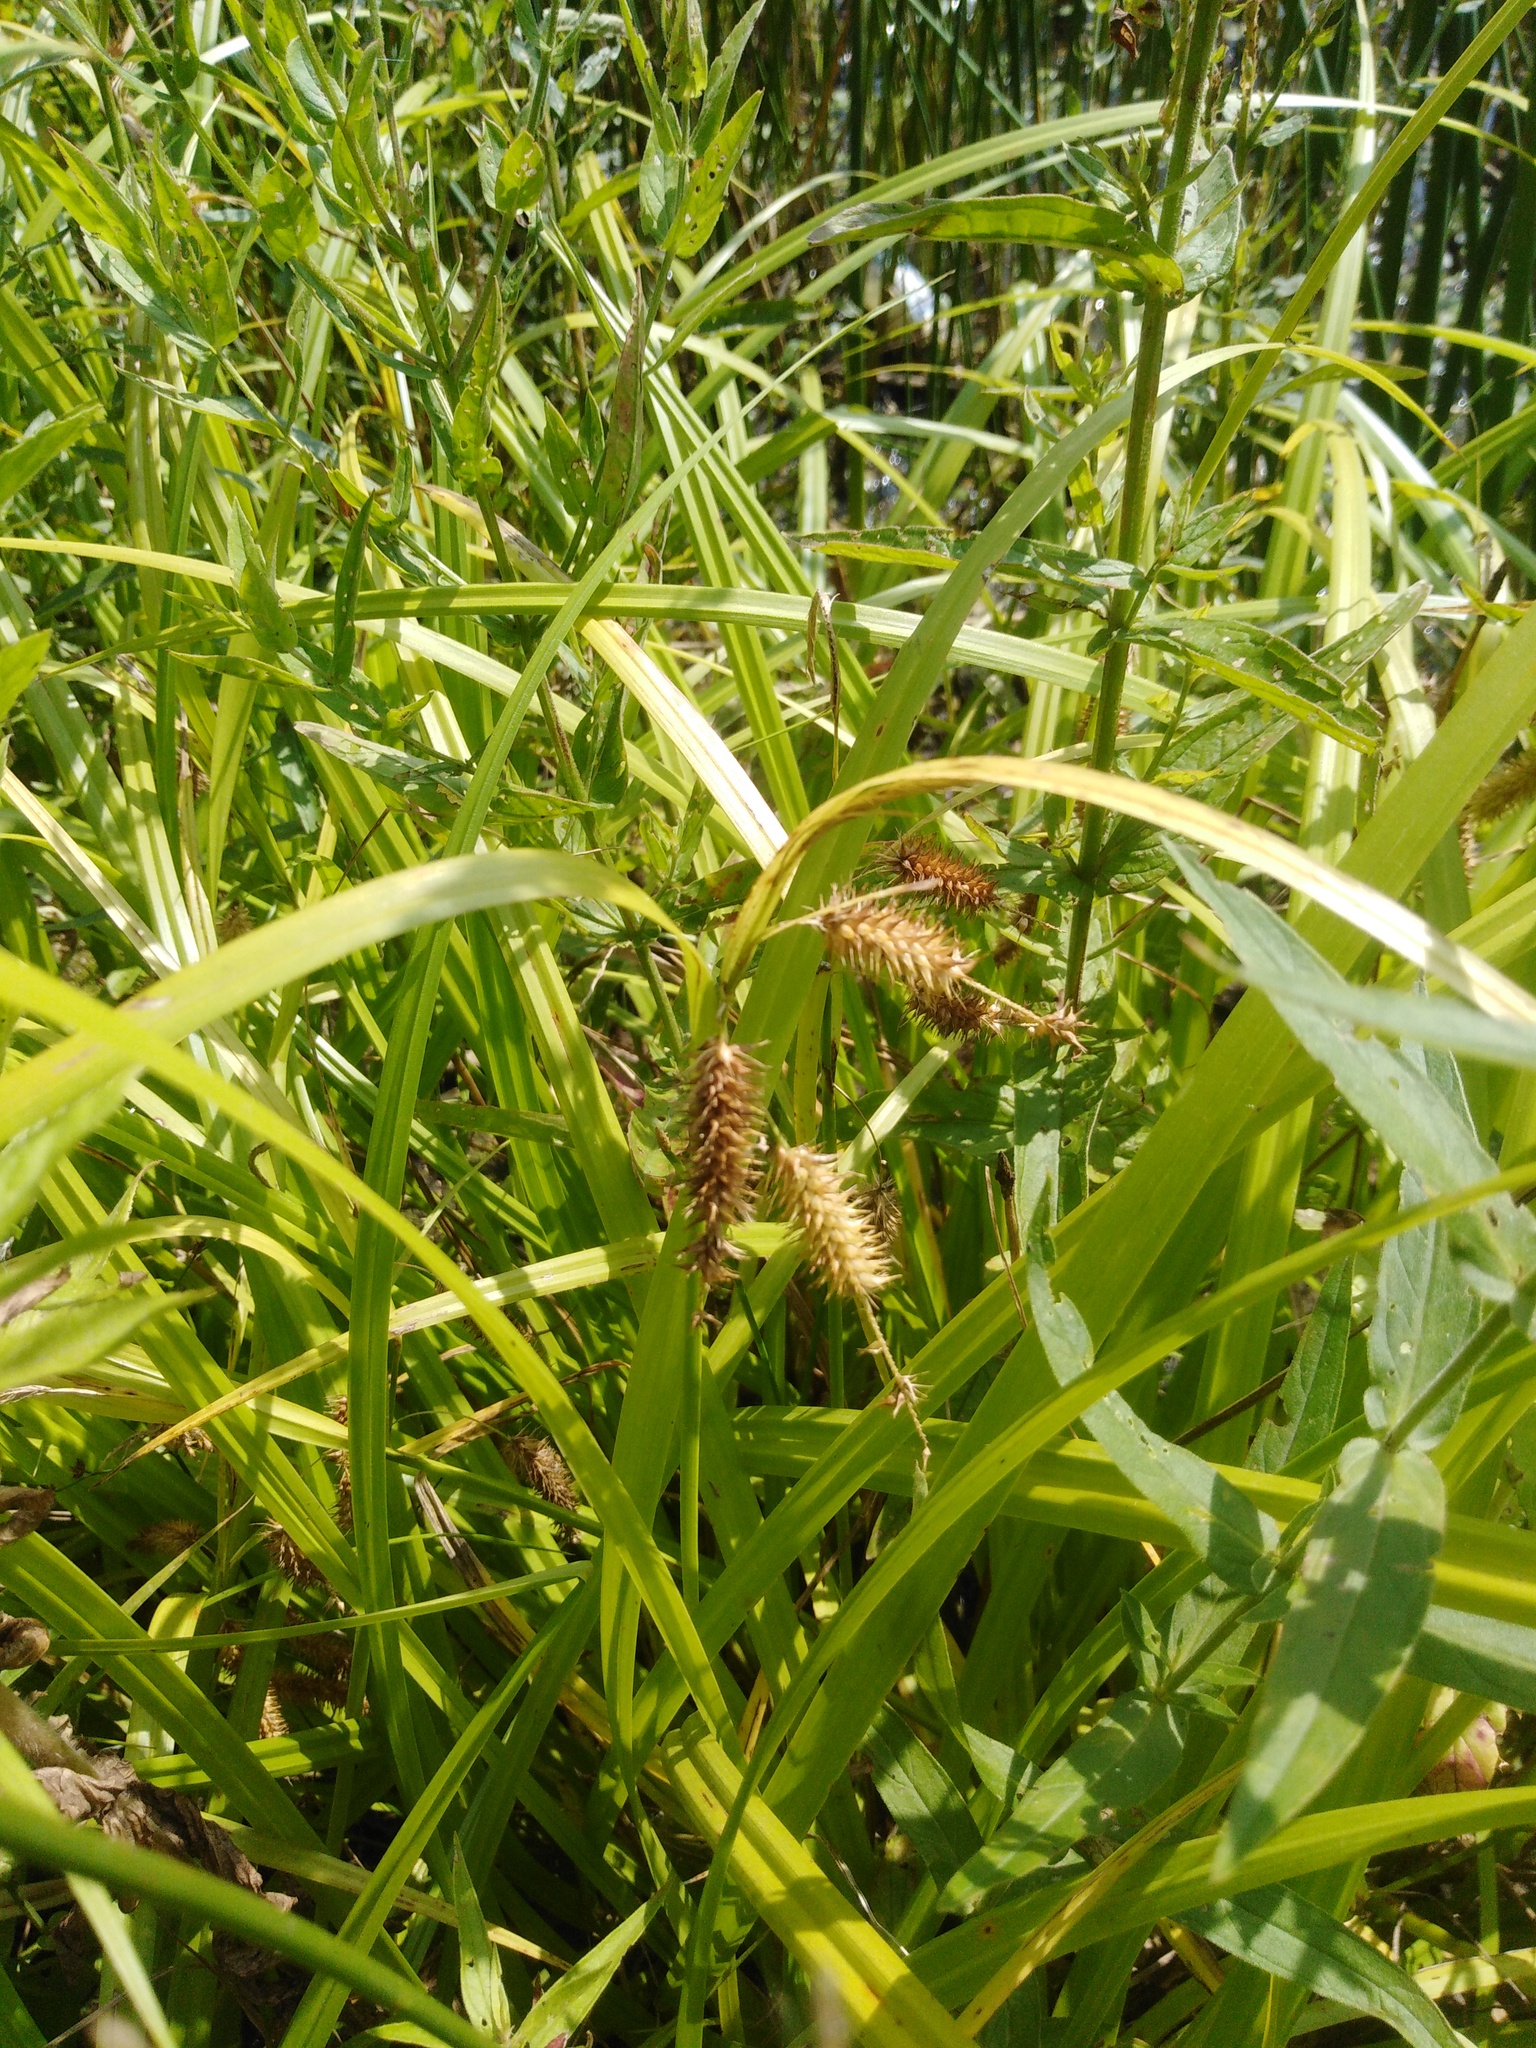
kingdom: Plantae
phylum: Tracheophyta
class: Liliopsida
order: Poales
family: Cyperaceae
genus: Carex
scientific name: Carex pseudocyperus
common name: Cyperus sedge
